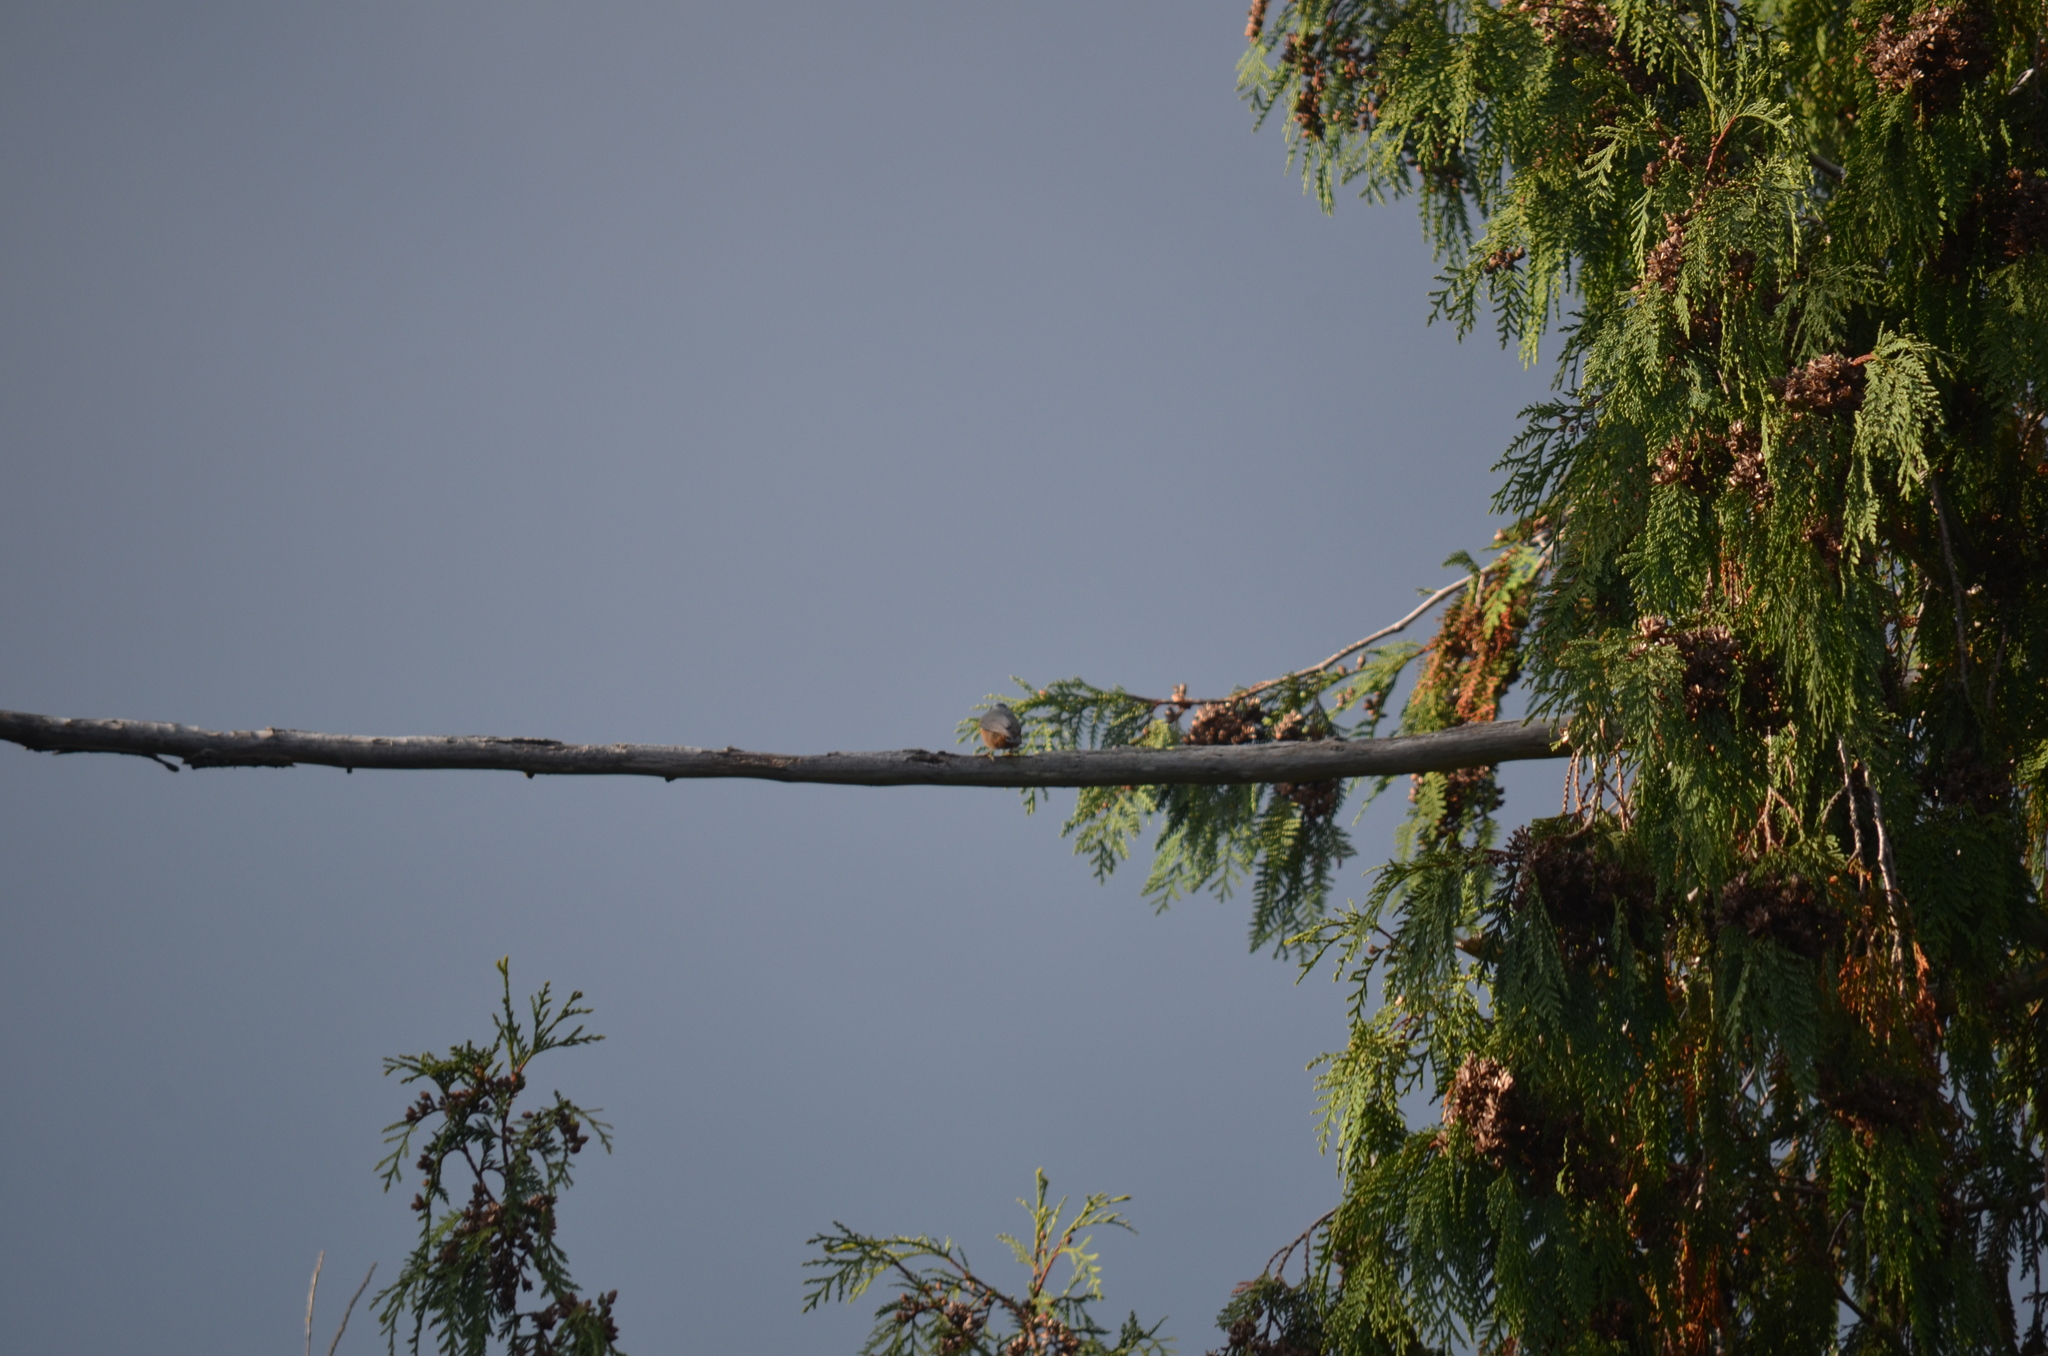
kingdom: Animalia
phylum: Chordata
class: Aves
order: Passeriformes
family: Sittidae
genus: Sitta
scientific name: Sitta canadensis
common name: Red-breasted nuthatch
